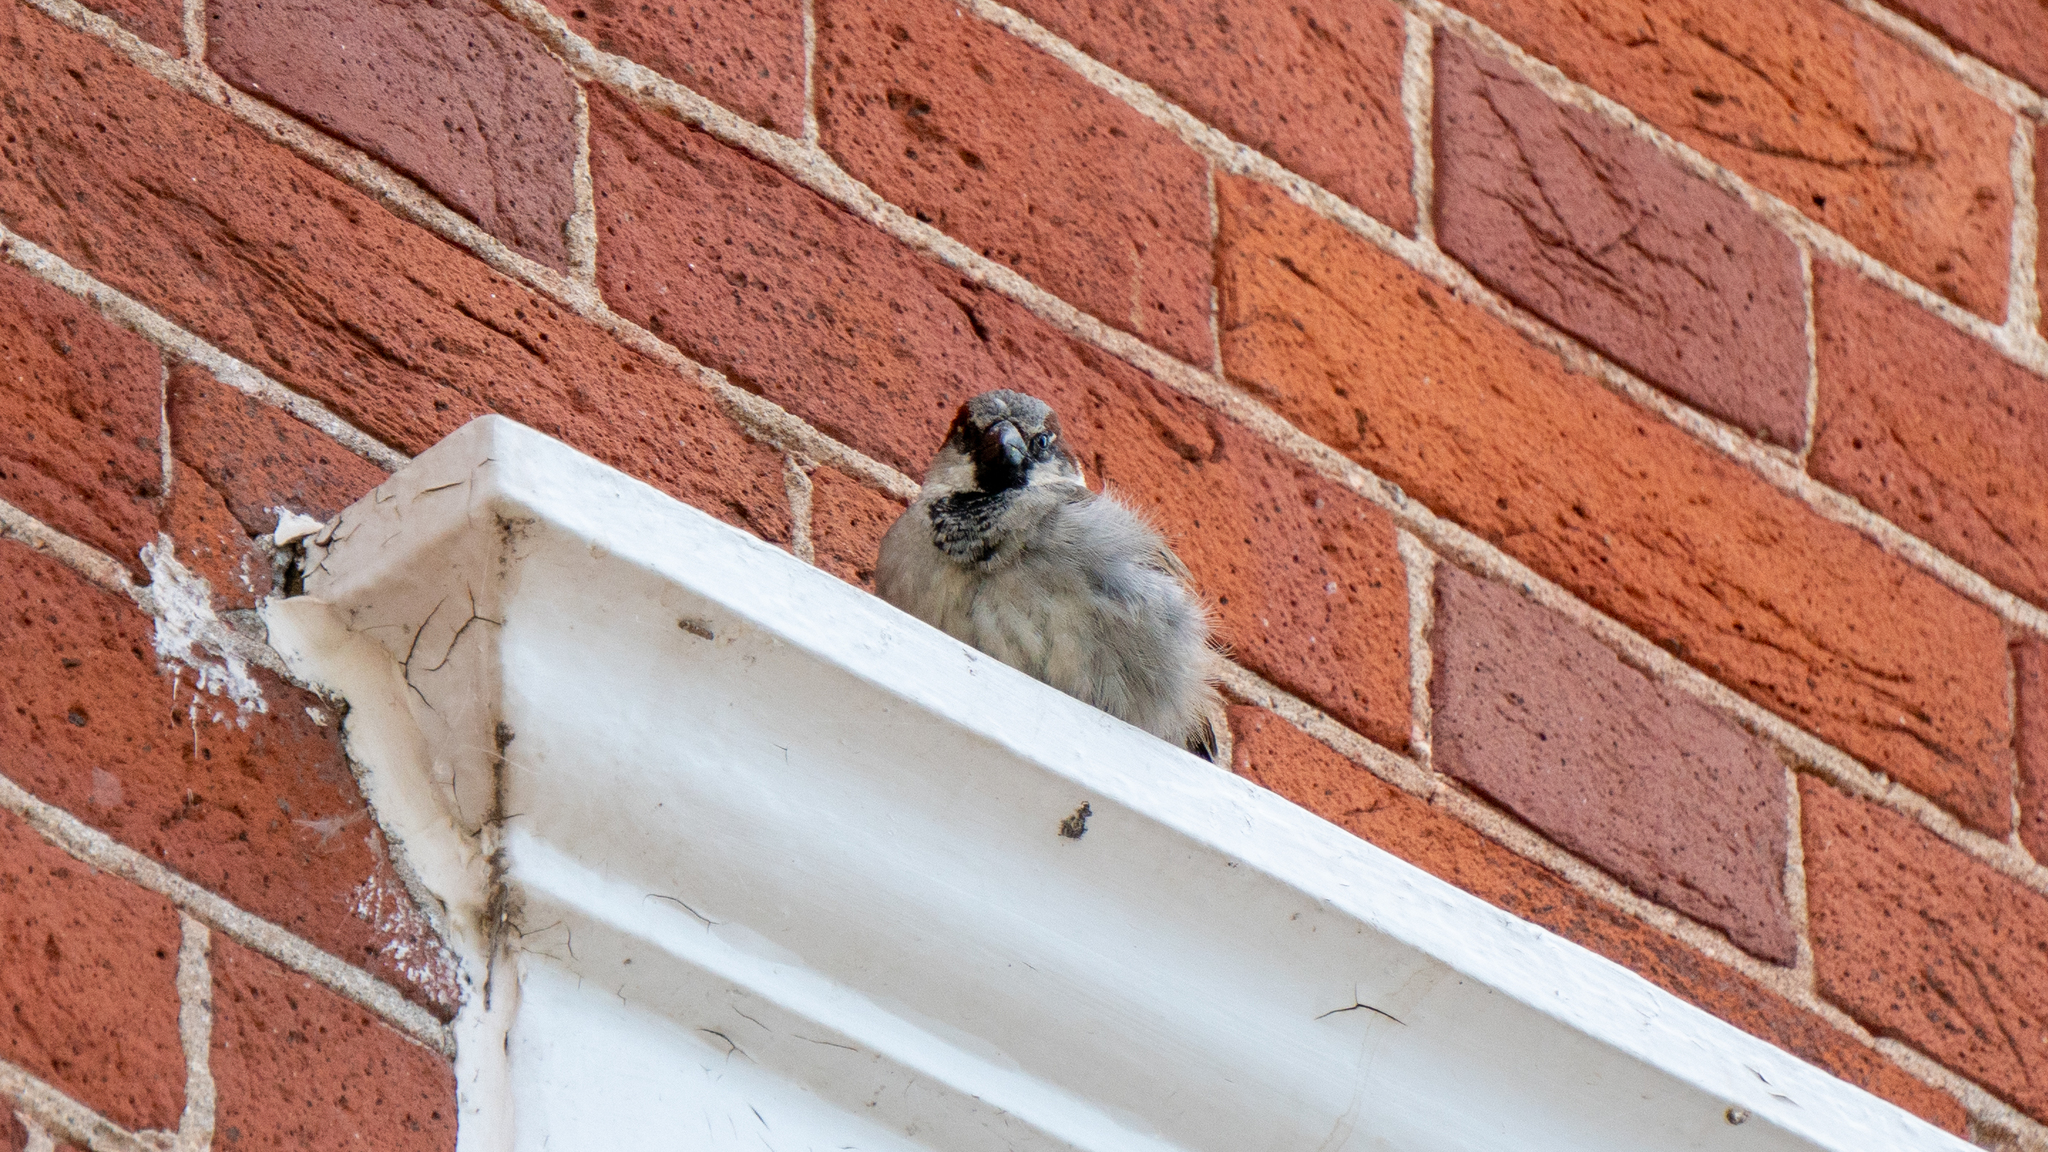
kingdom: Animalia
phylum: Chordata
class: Aves
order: Passeriformes
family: Passeridae
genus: Passer
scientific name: Passer domesticus
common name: House sparrow
